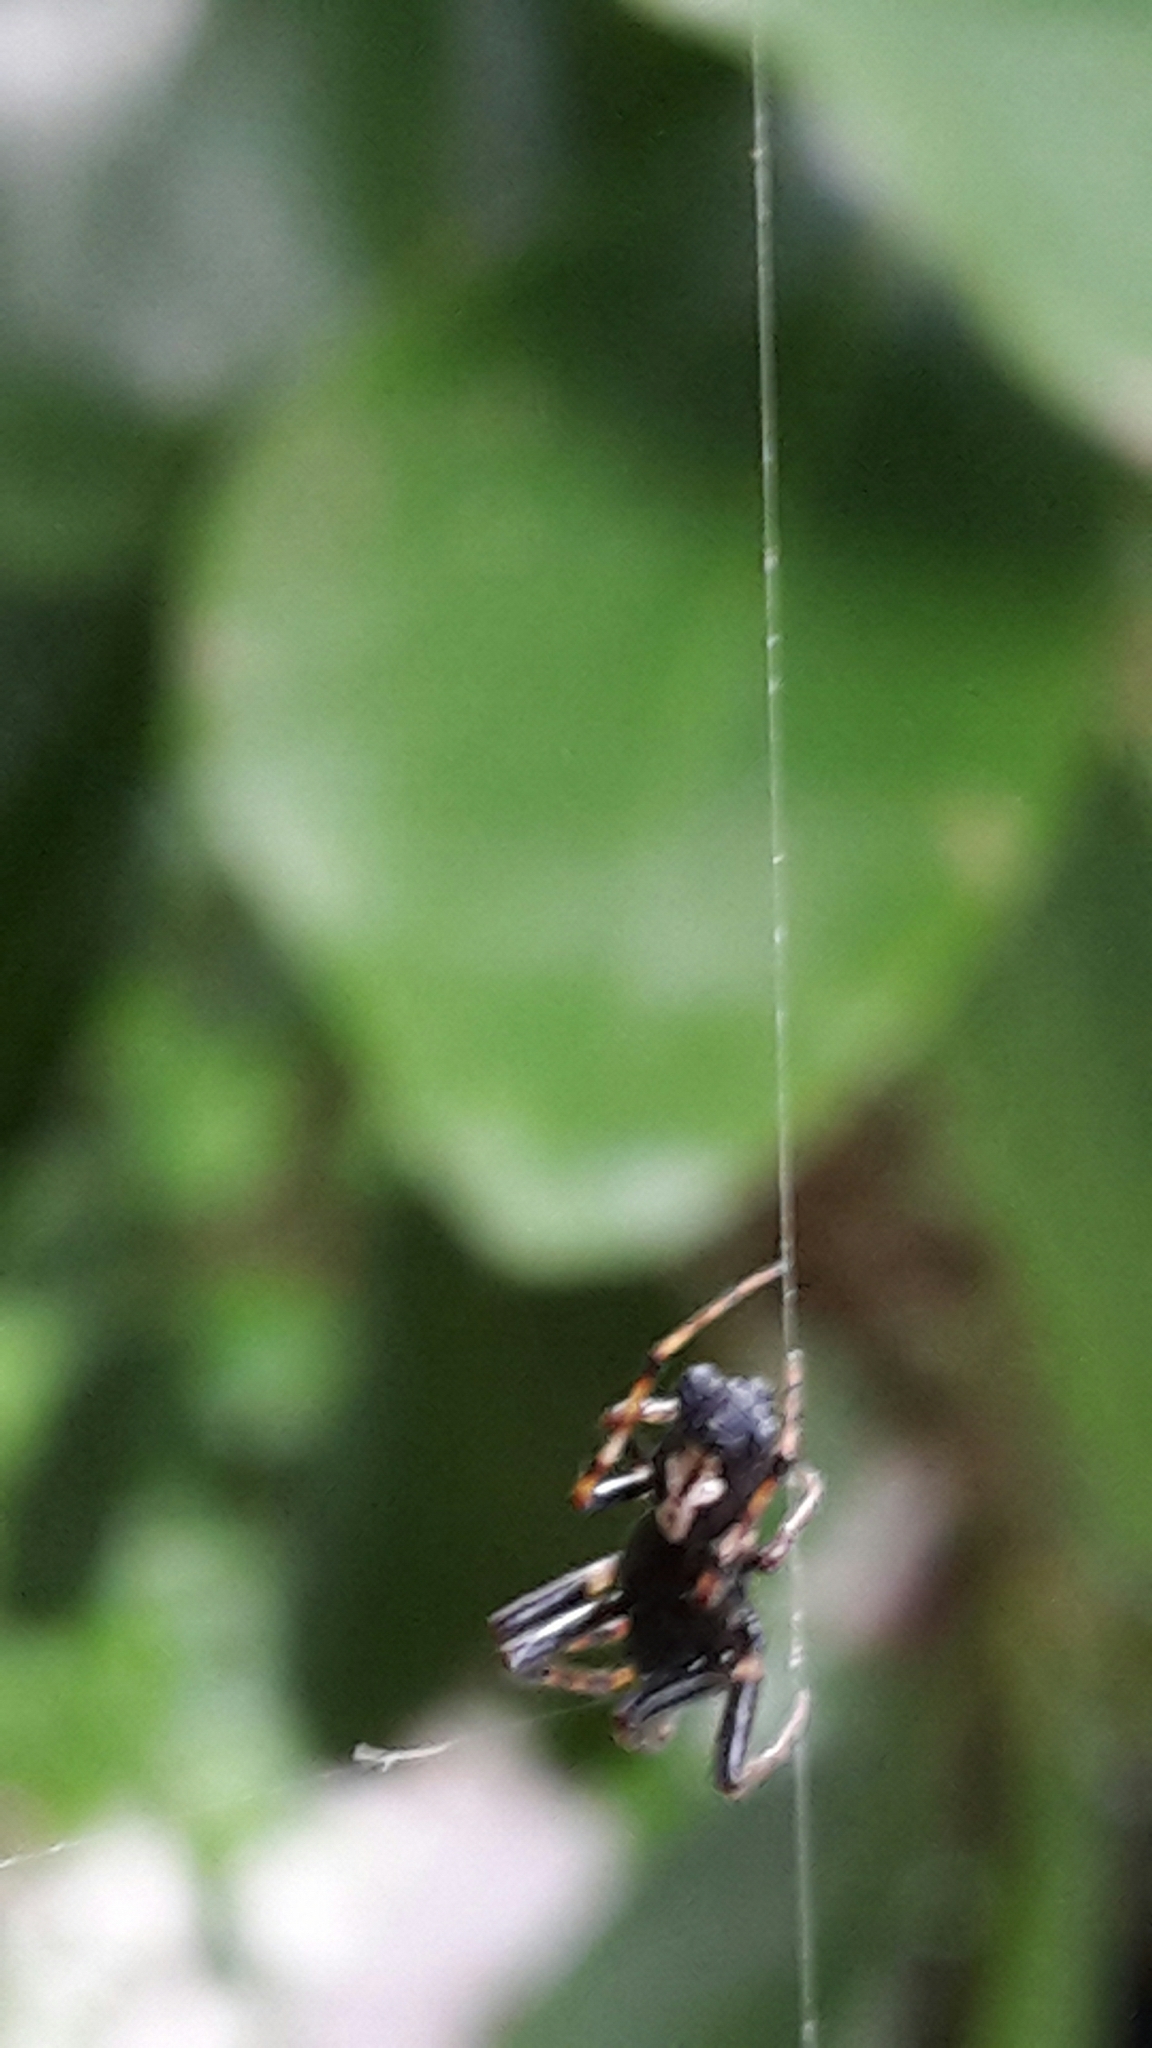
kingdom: Animalia
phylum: Arthropoda
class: Arachnida
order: Araneae
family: Araneidae
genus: Cyclosa
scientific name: Cyclosa trilobata
